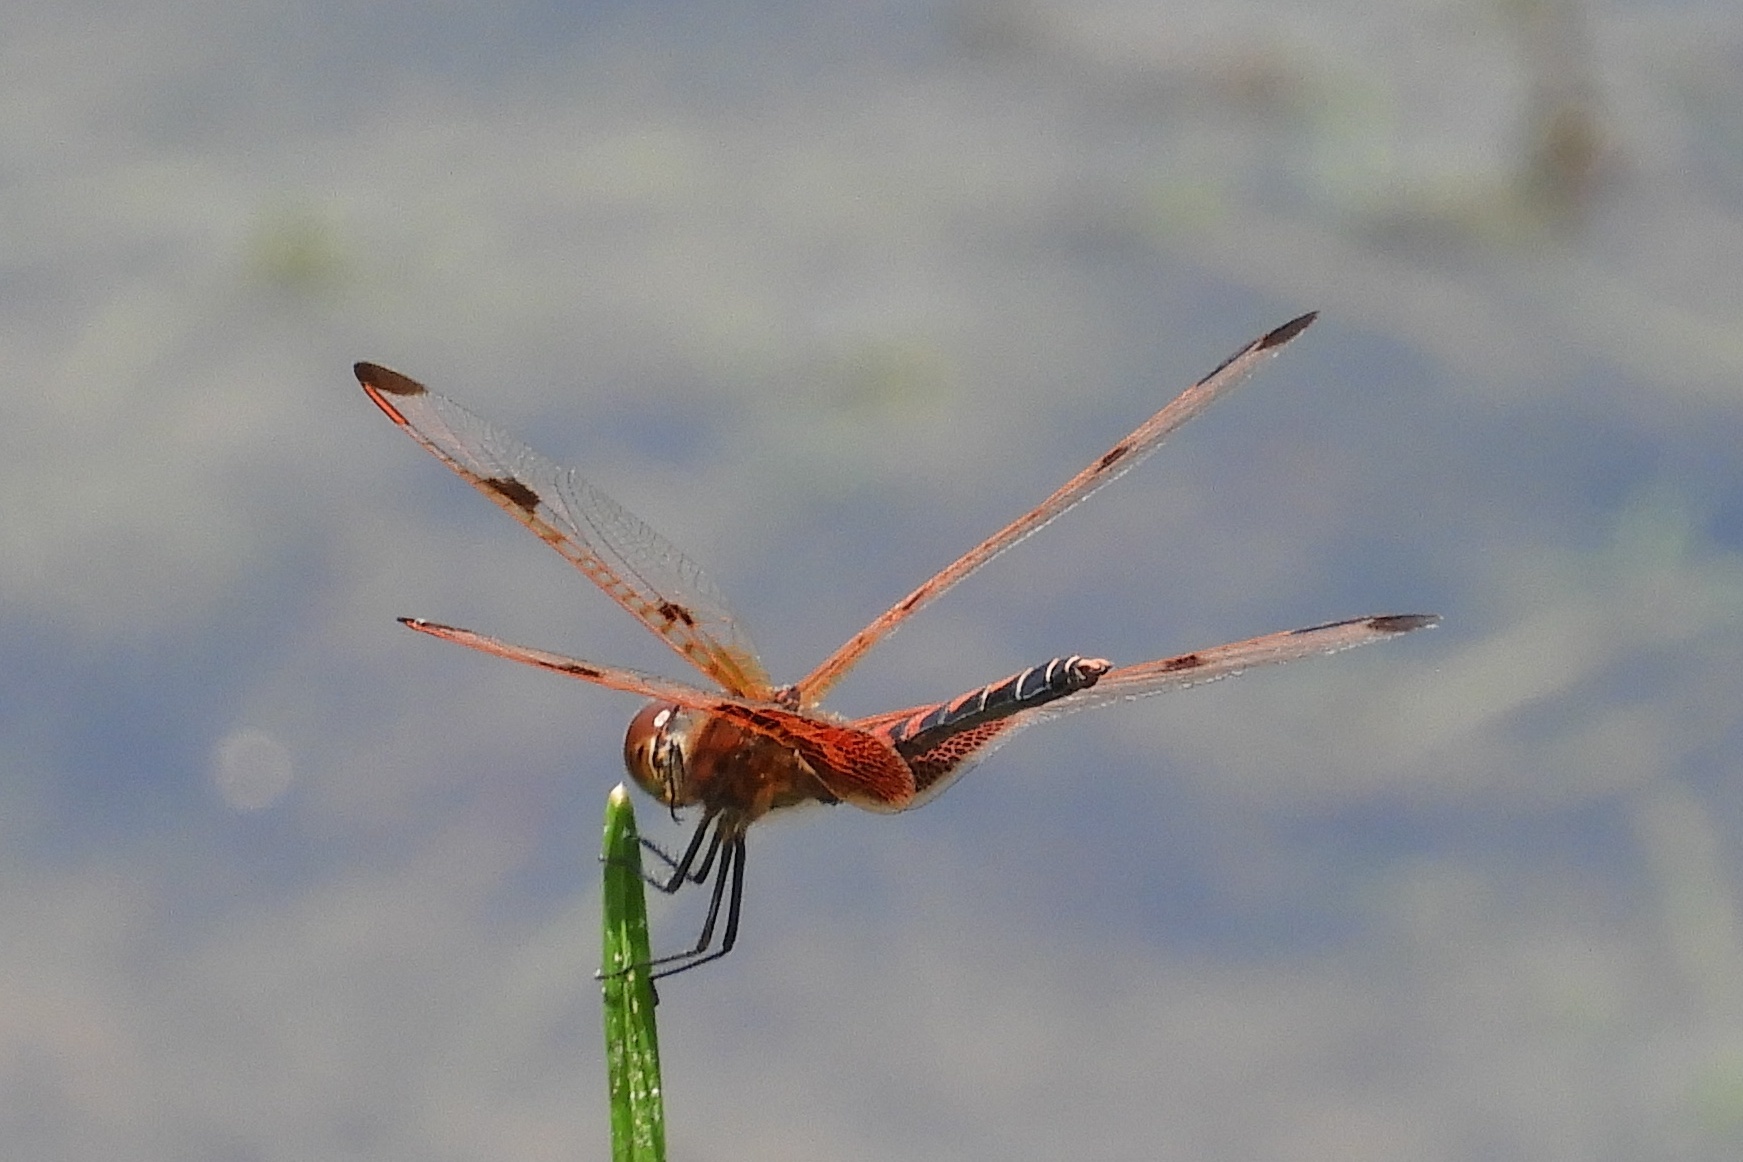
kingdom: Animalia
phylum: Arthropoda
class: Insecta
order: Odonata
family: Libellulidae
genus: Celithemis
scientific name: Celithemis elisa
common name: Calico pennant
